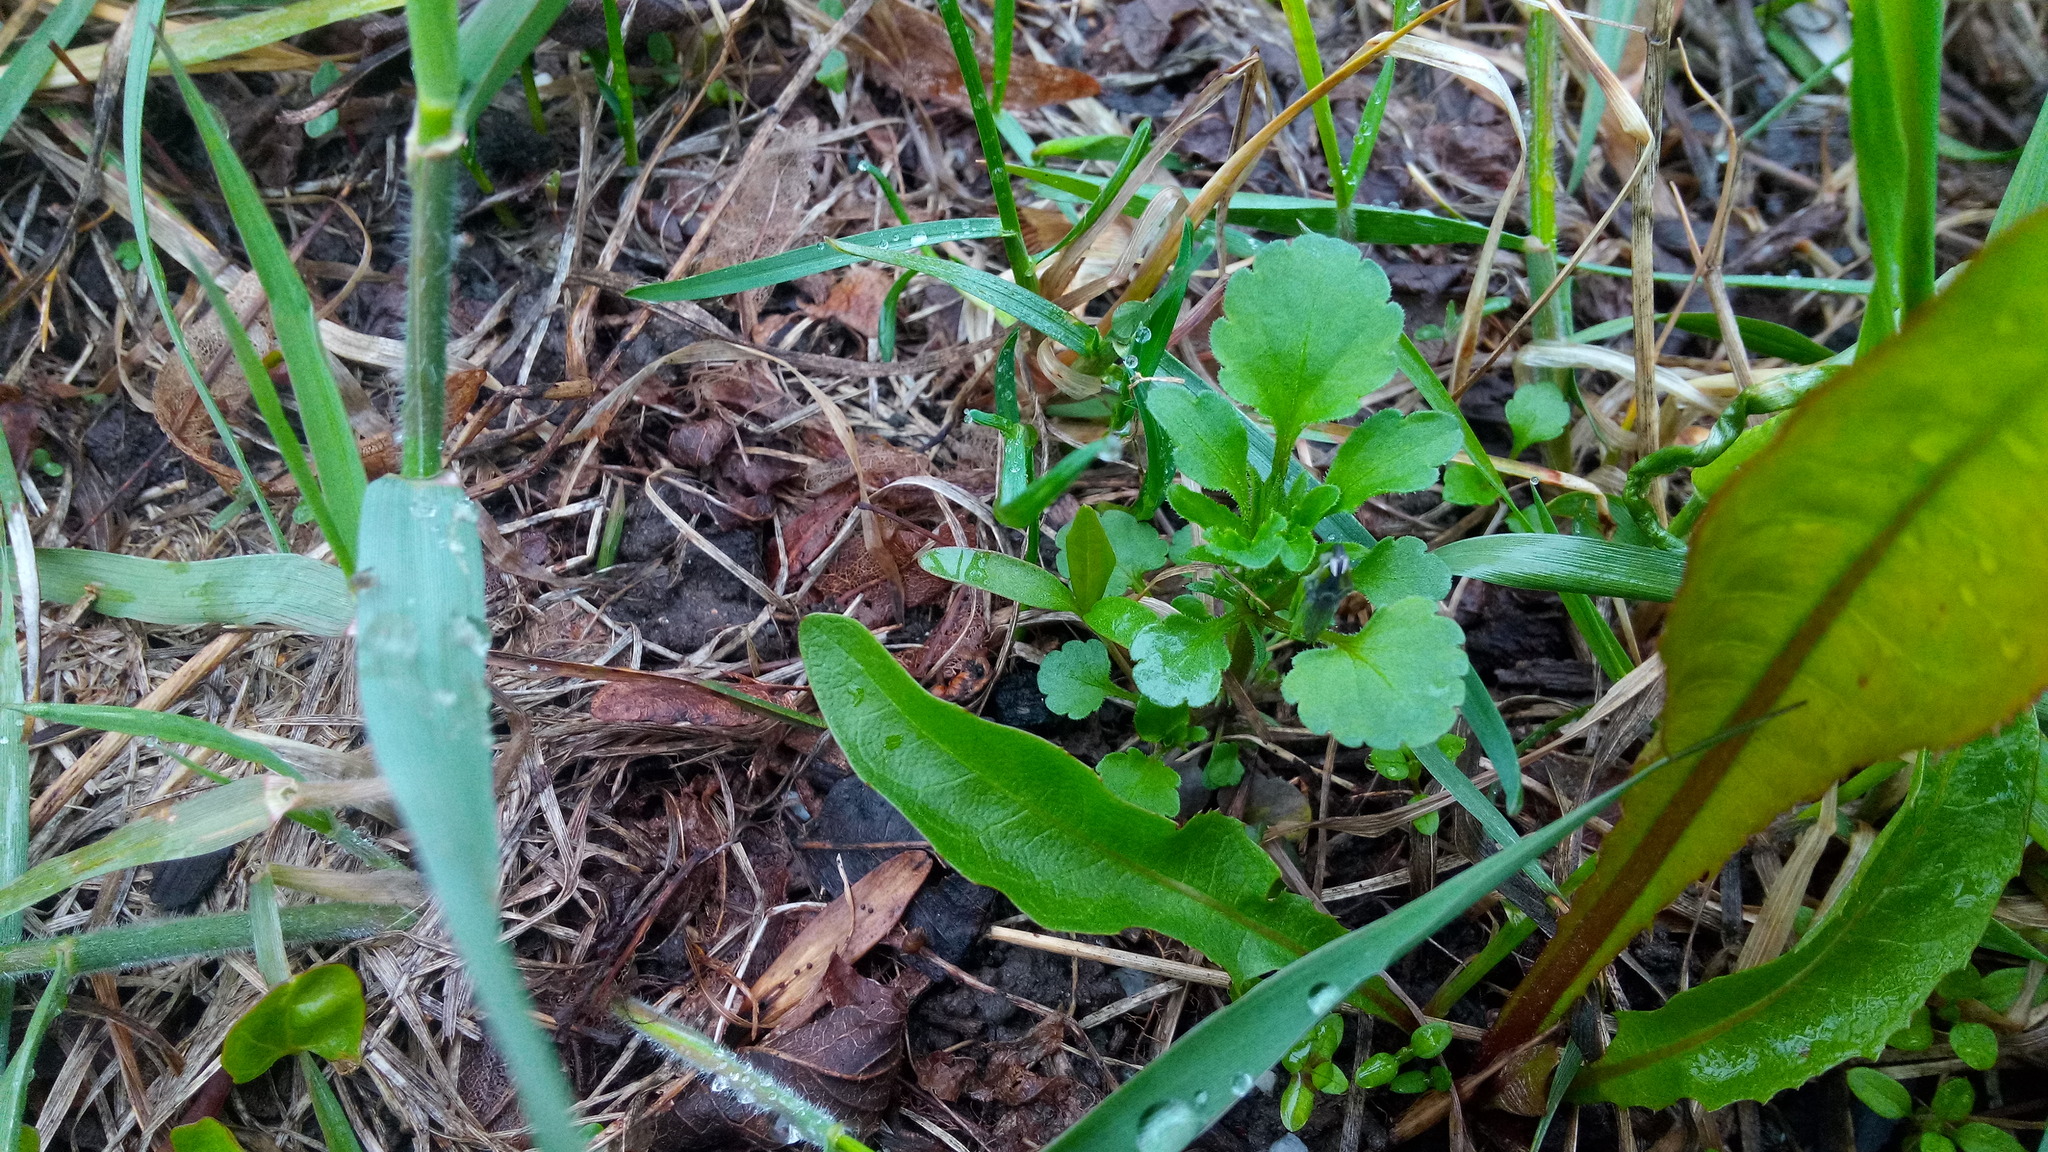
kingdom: Plantae
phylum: Tracheophyta
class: Magnoliopsida
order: Malpighiales
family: Violaceae
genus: Viola
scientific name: Viola arvensis
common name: Field pansy
